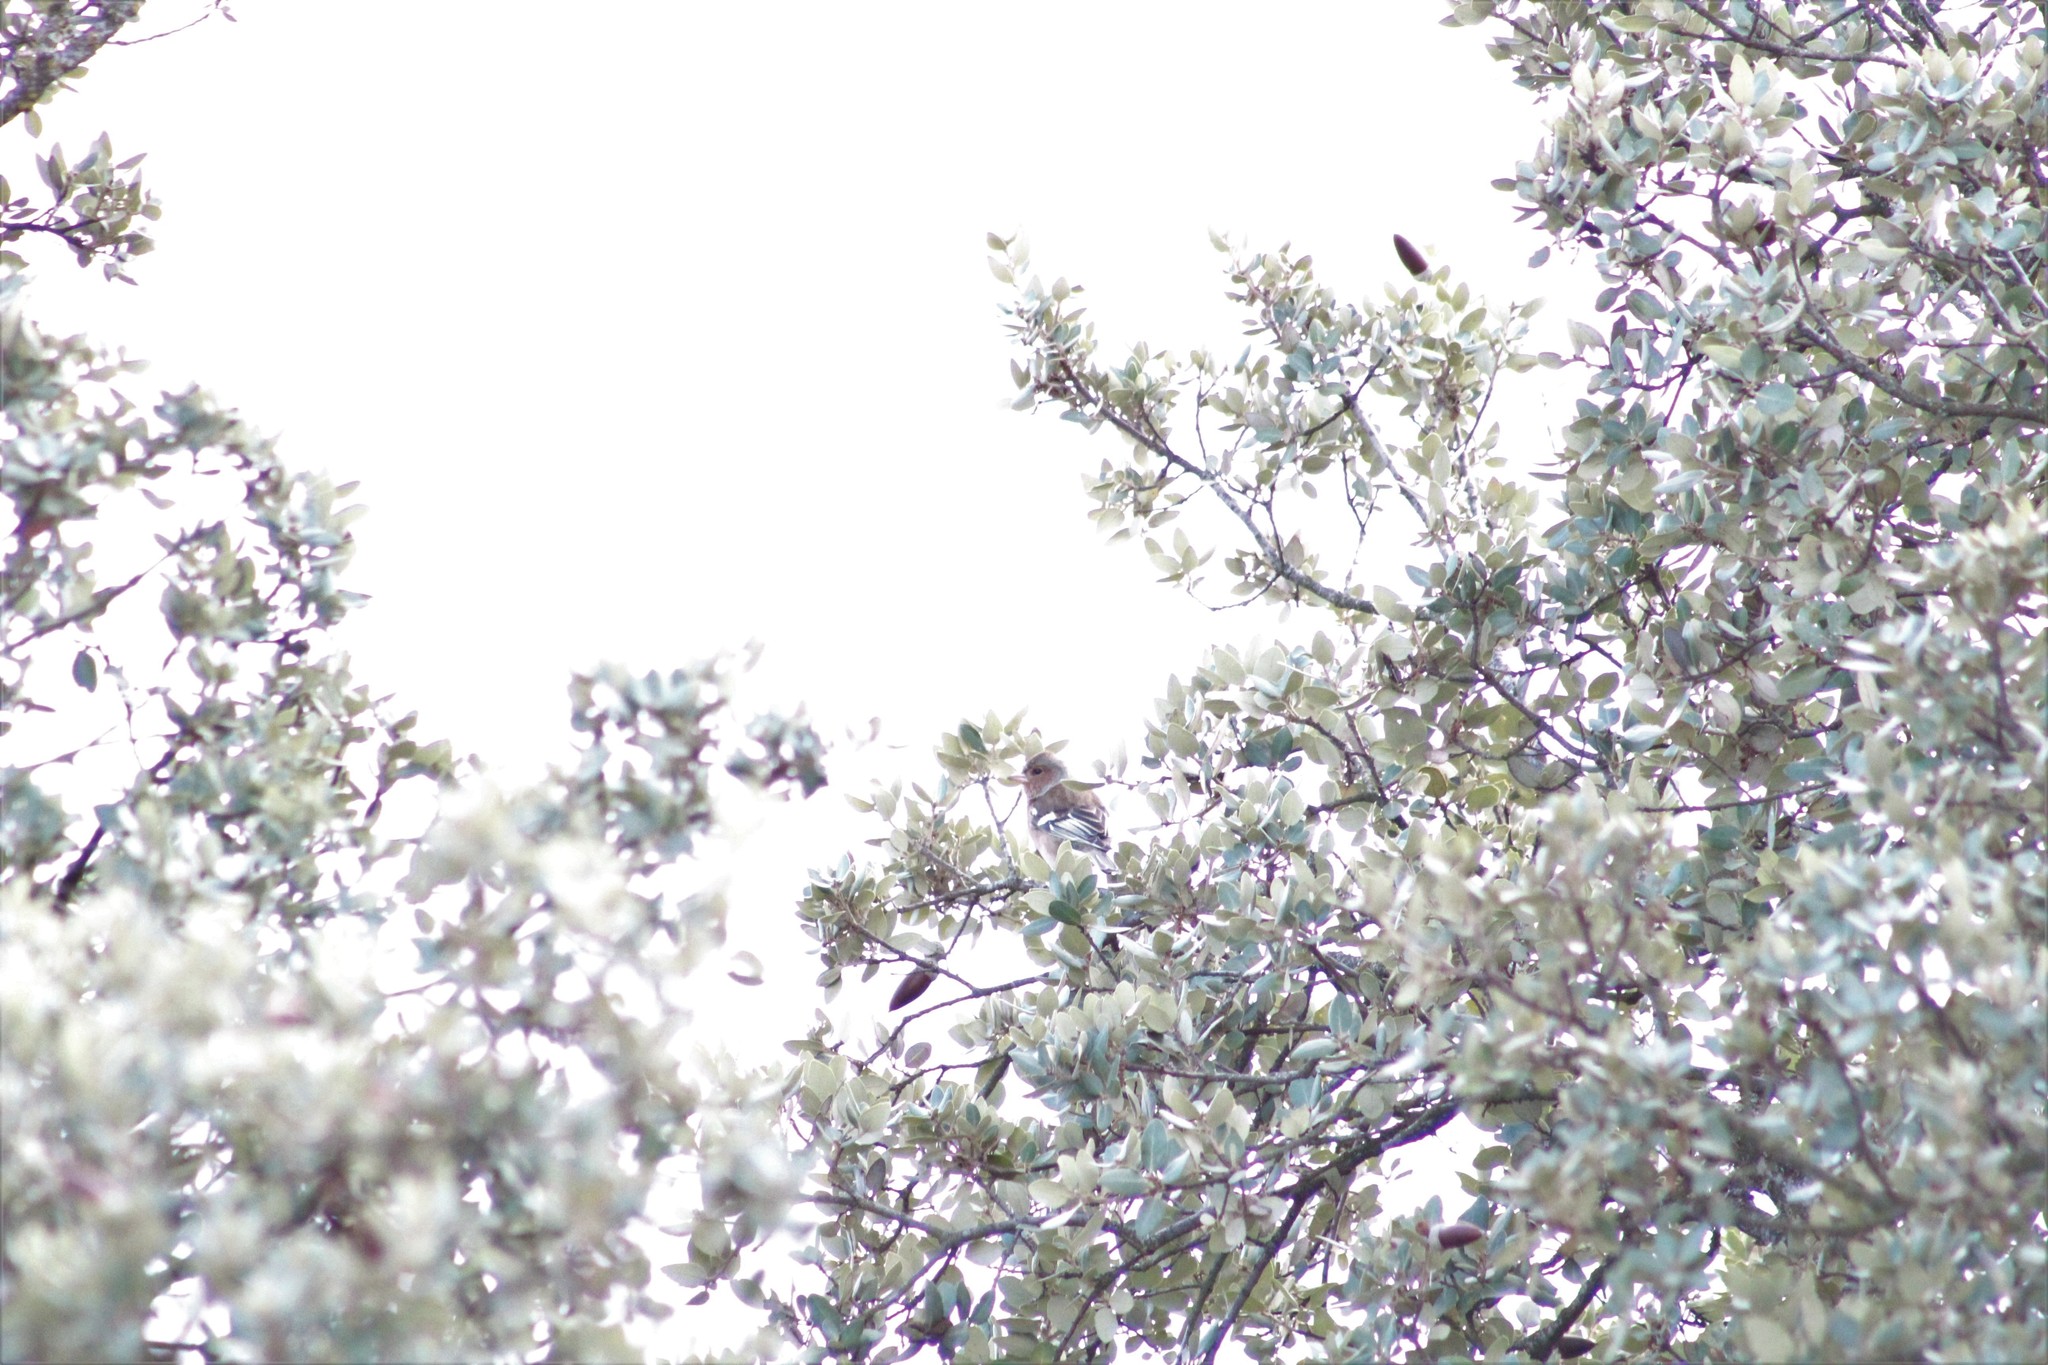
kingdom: Animalia
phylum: Chordata
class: Aves
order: Passeriformes
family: Fringillidae
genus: Fringilla
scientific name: Fringilla coelebs
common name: Common chaffinch
